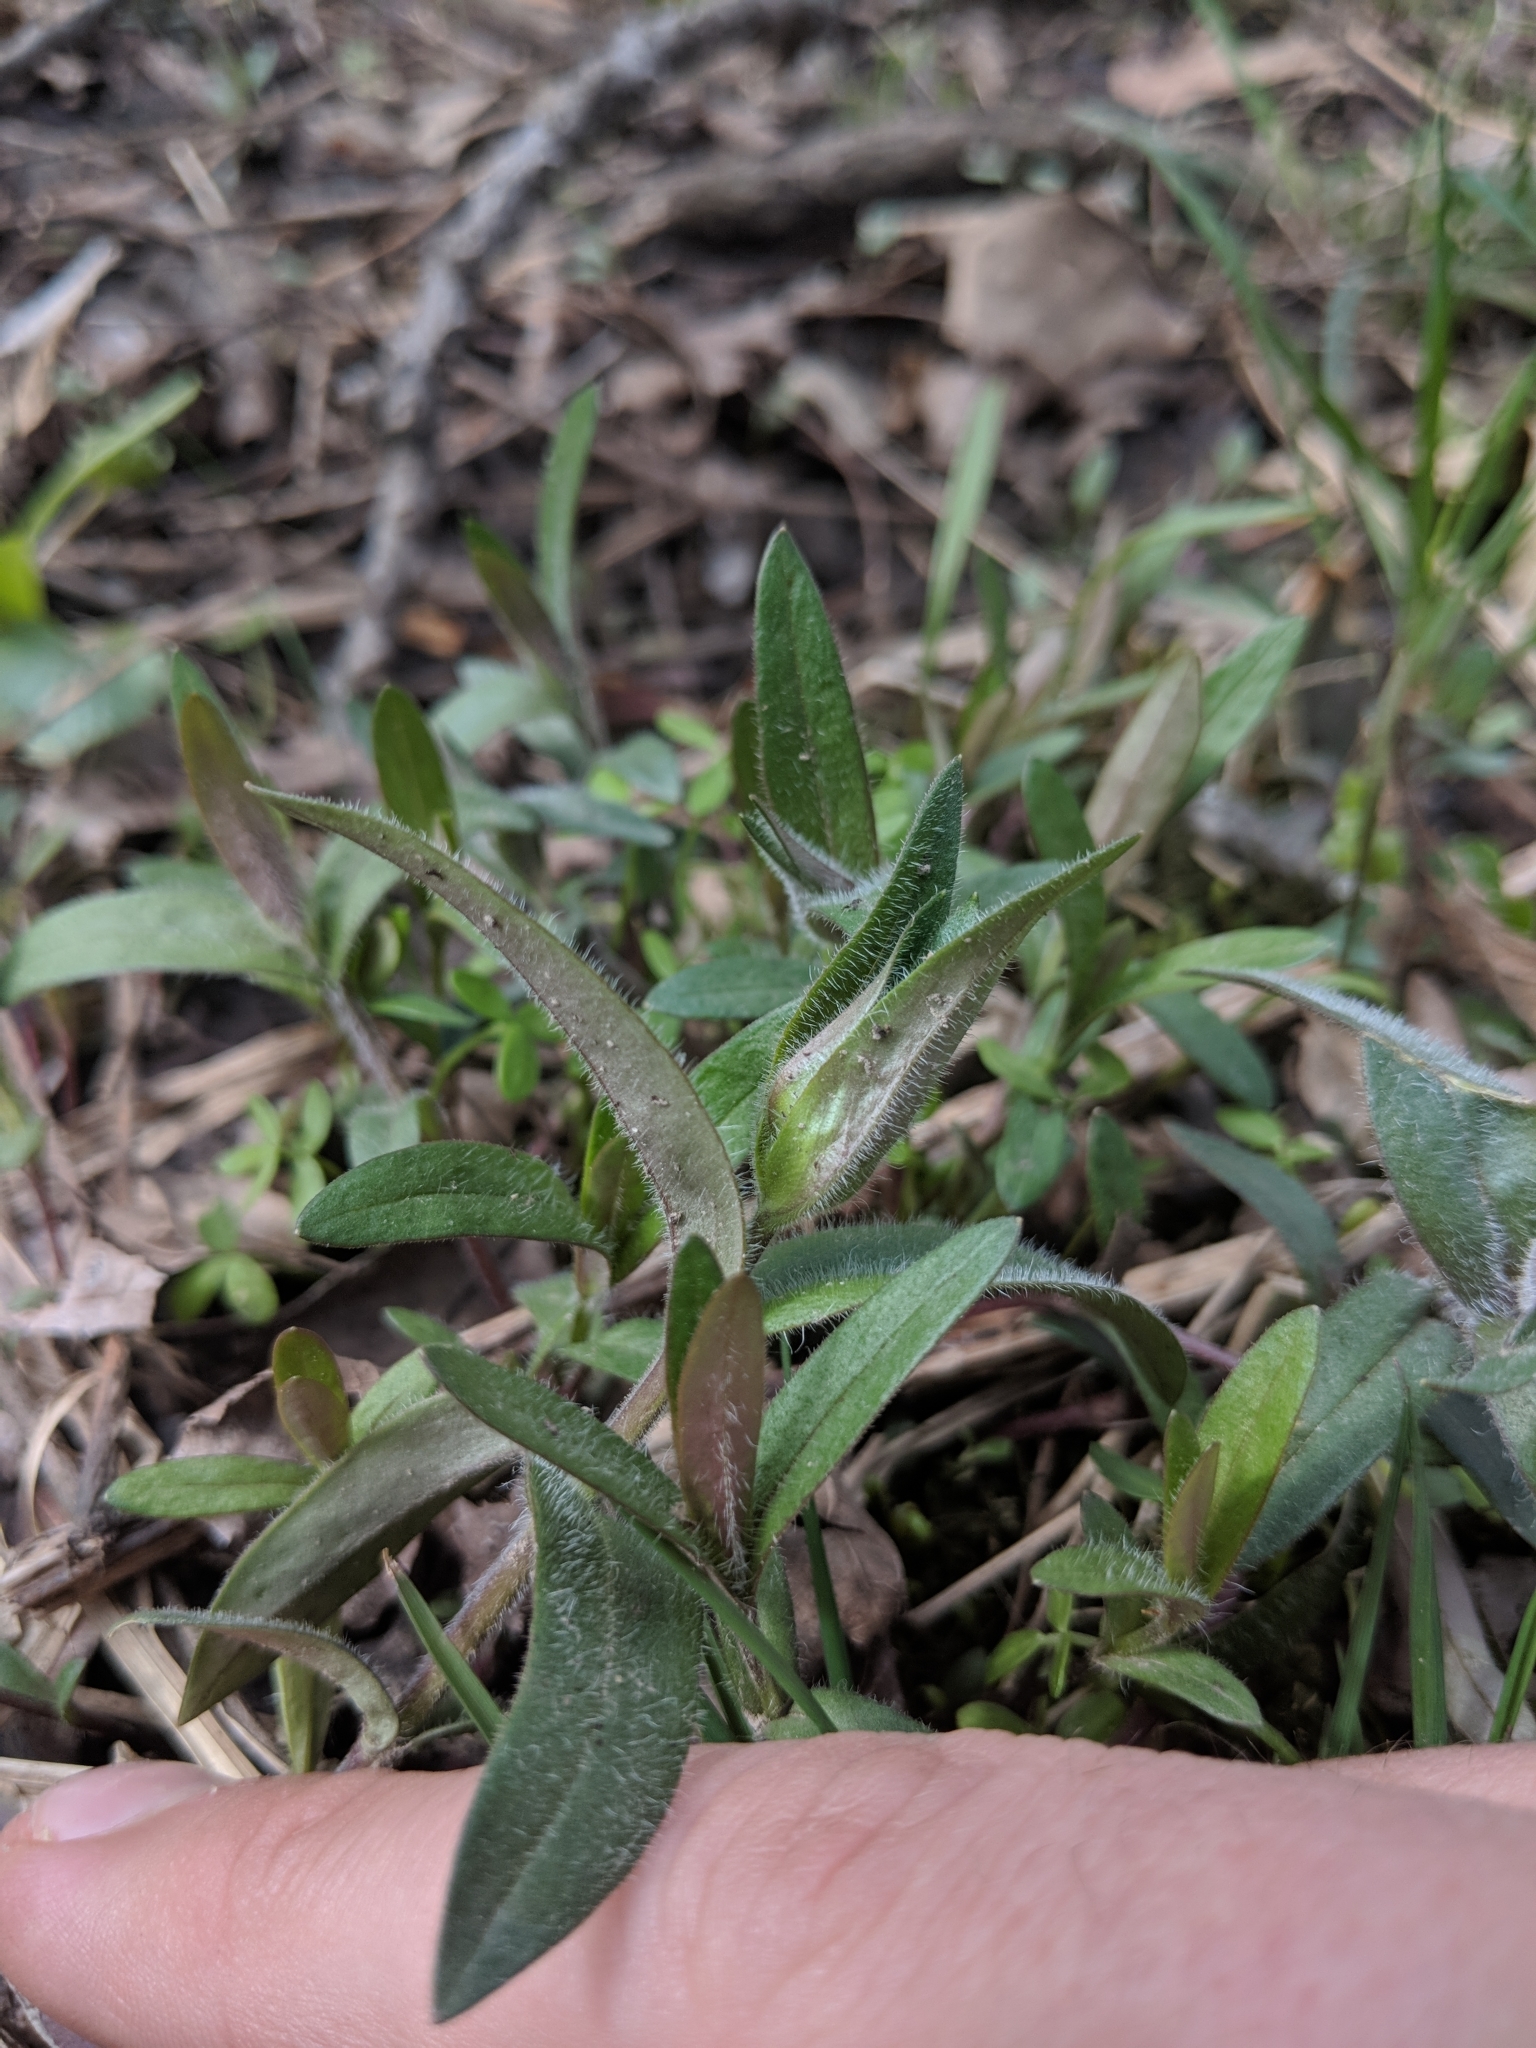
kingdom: Plantae
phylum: Tracheophyta
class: Magnoliopsida
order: Ericales
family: Polemoniaceae
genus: Phlox
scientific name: Phlox divaricata
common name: Blue phlox
